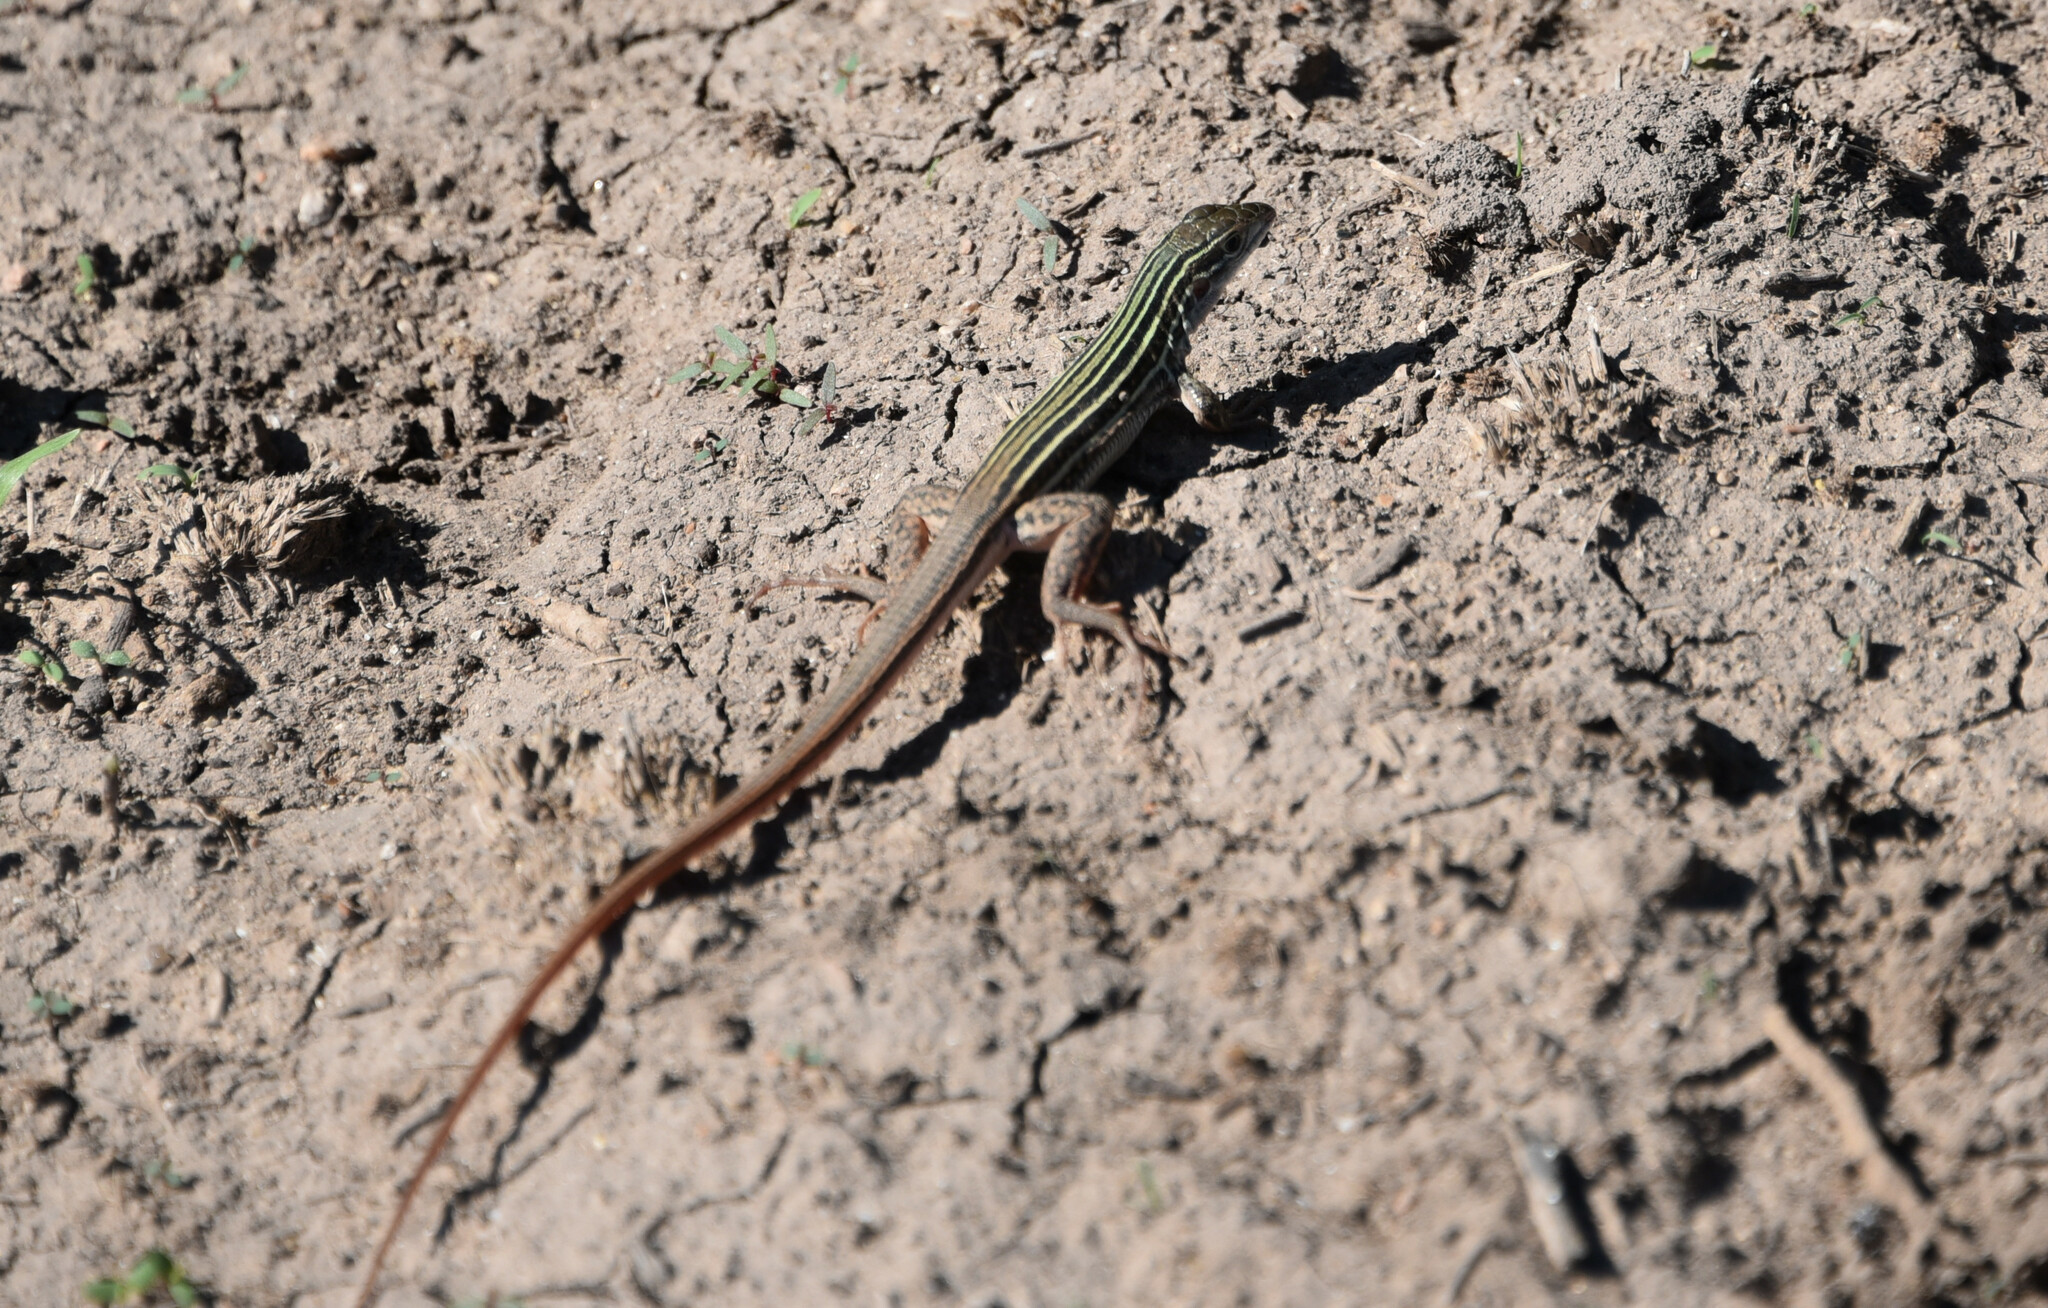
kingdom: Animalia
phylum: Chordata
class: Squamata
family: Teiidae
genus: Aspidoscelis
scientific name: Aspidoscelis gularis
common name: Eastern spotted whiptail
